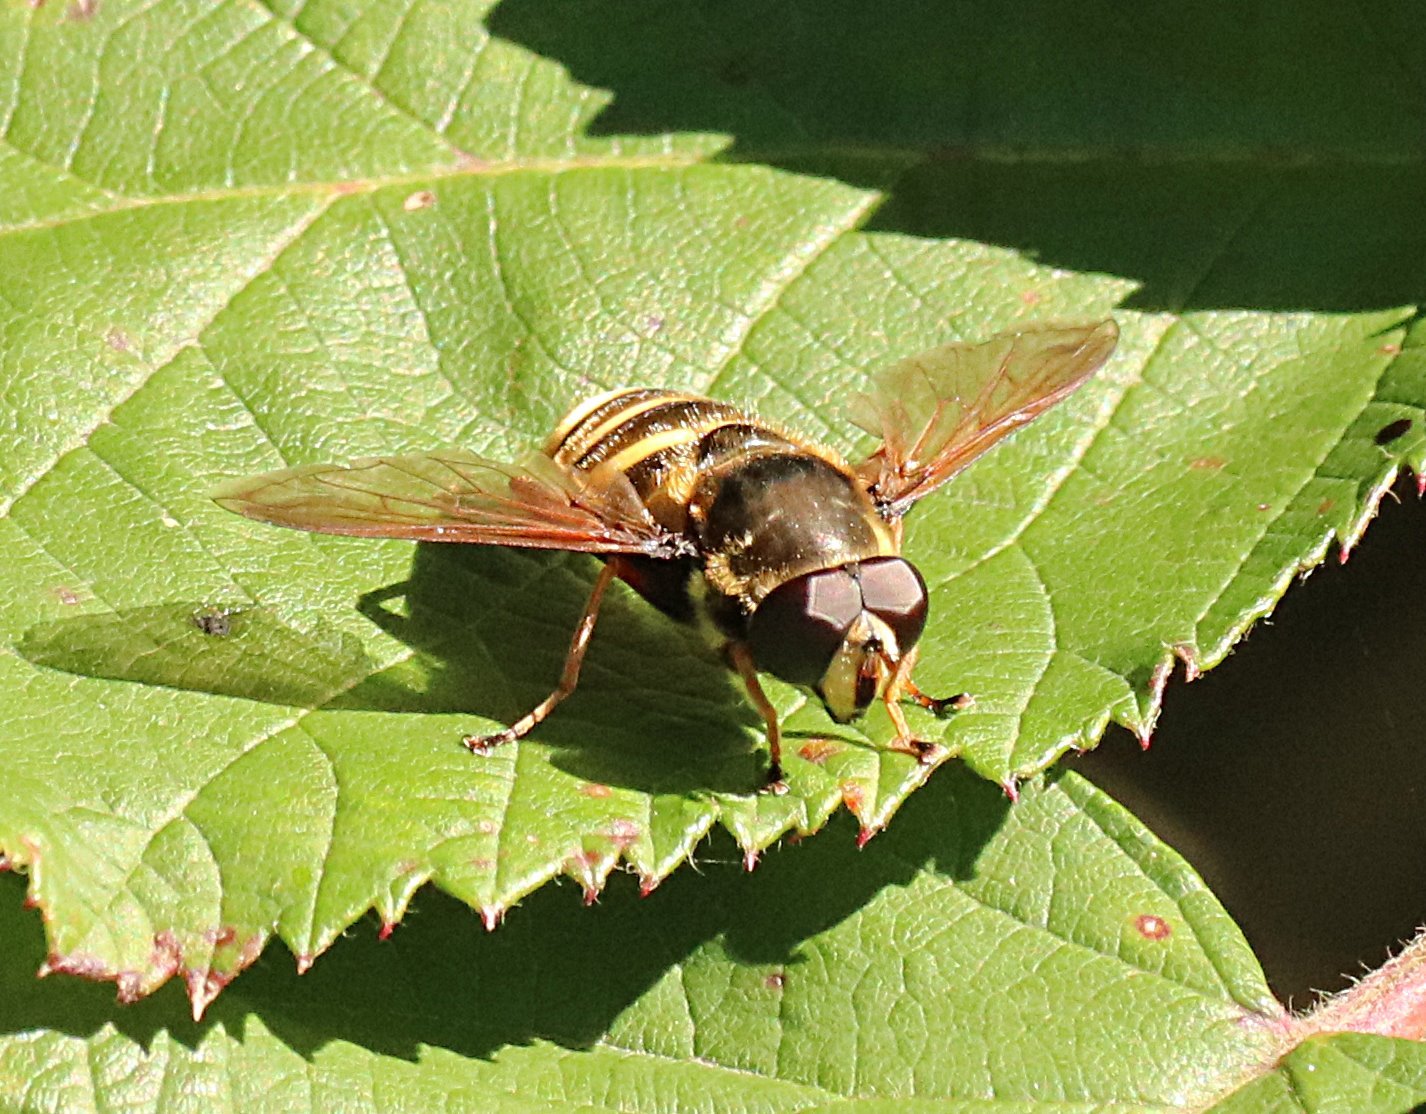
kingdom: Animalia
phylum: Arthropoda
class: Insecta
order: Diptera
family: Syrphidae
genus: Sericomyia
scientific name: Sericomyia silentis
